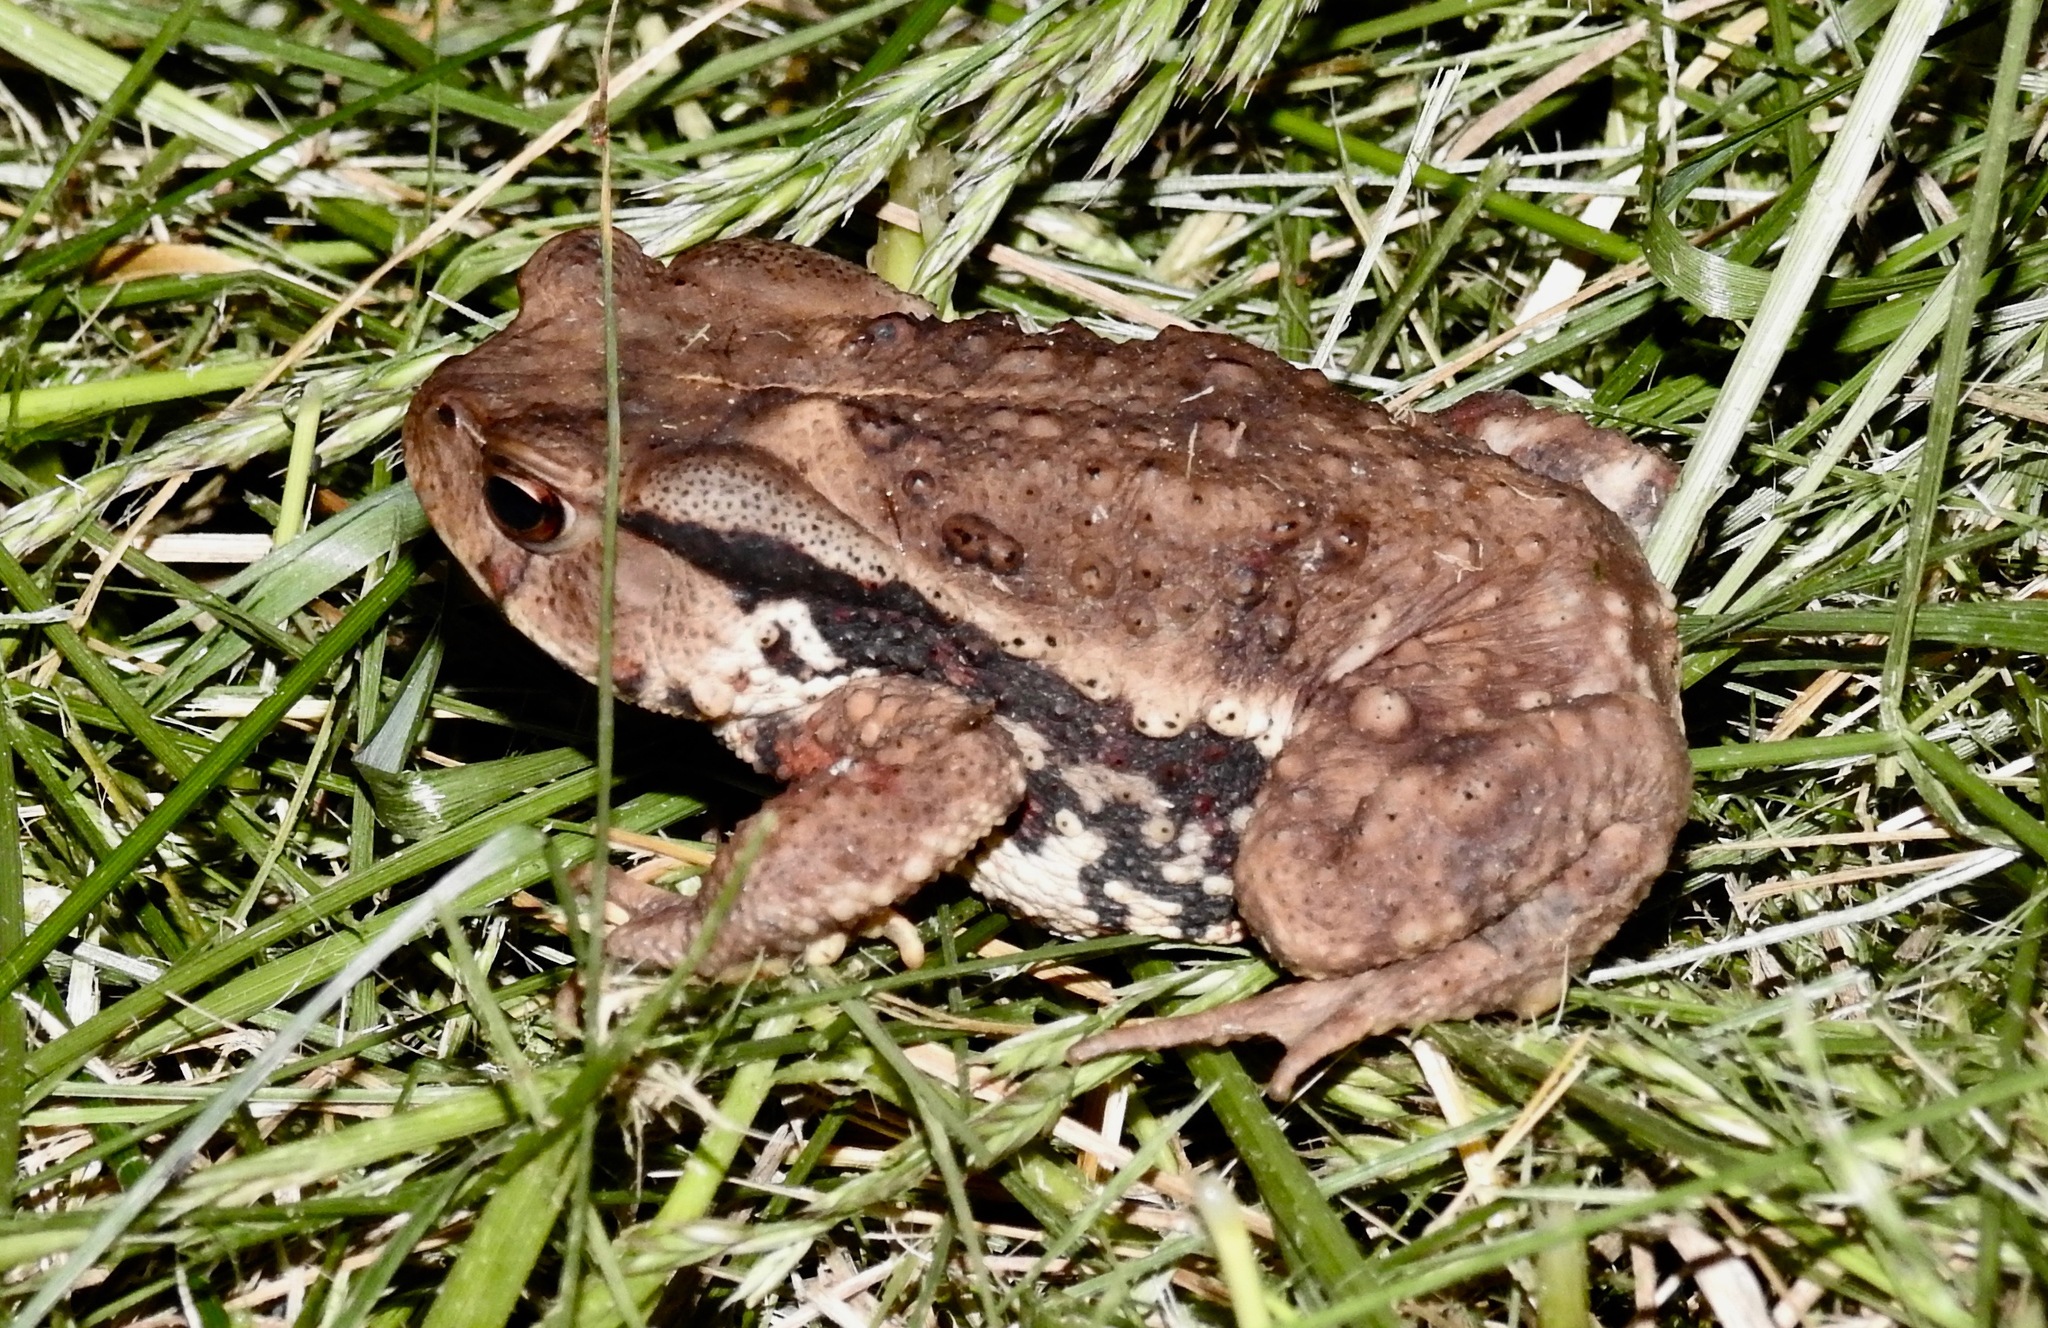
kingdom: Animalia
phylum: Chordata
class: Amphibia
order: Anura
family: Bufonidae
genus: Bufo
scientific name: Bufo gargarizans
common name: Asiatic toad
